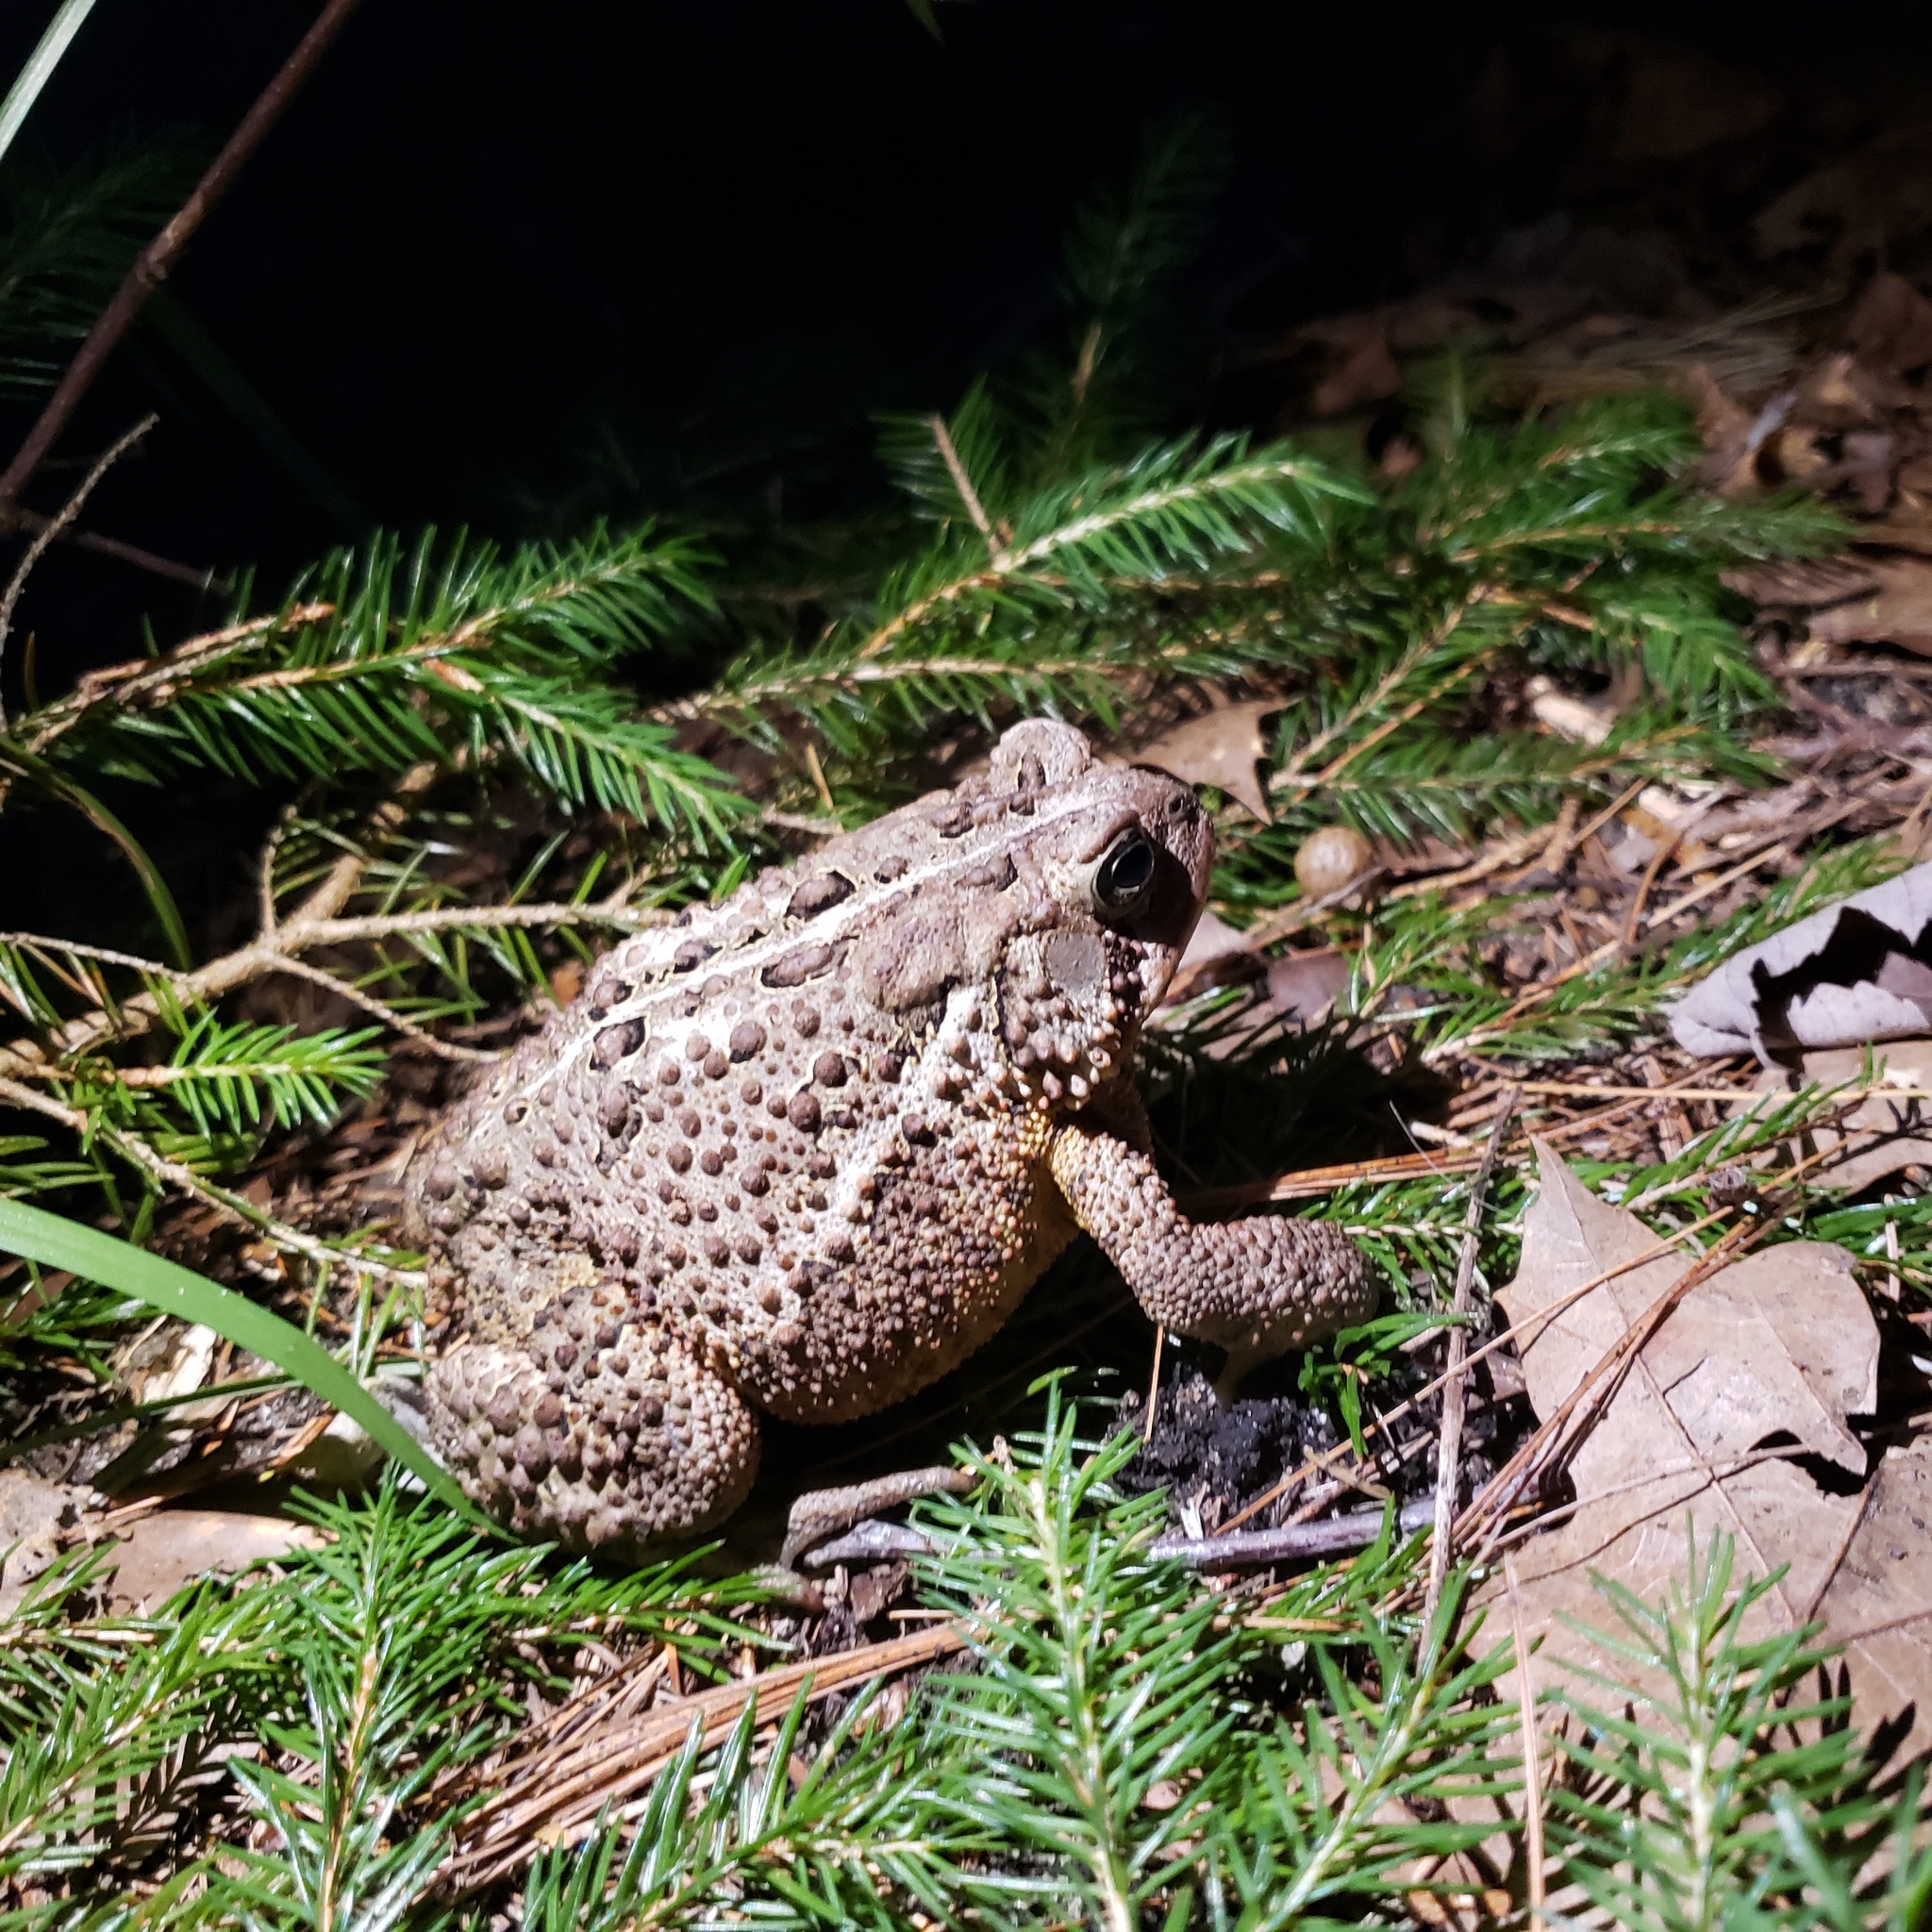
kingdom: Animalia
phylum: Chordata
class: Amphibia
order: Anura
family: Bufonidae
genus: Anaxyrus
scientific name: Anaxyrus americanus
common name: American toad
